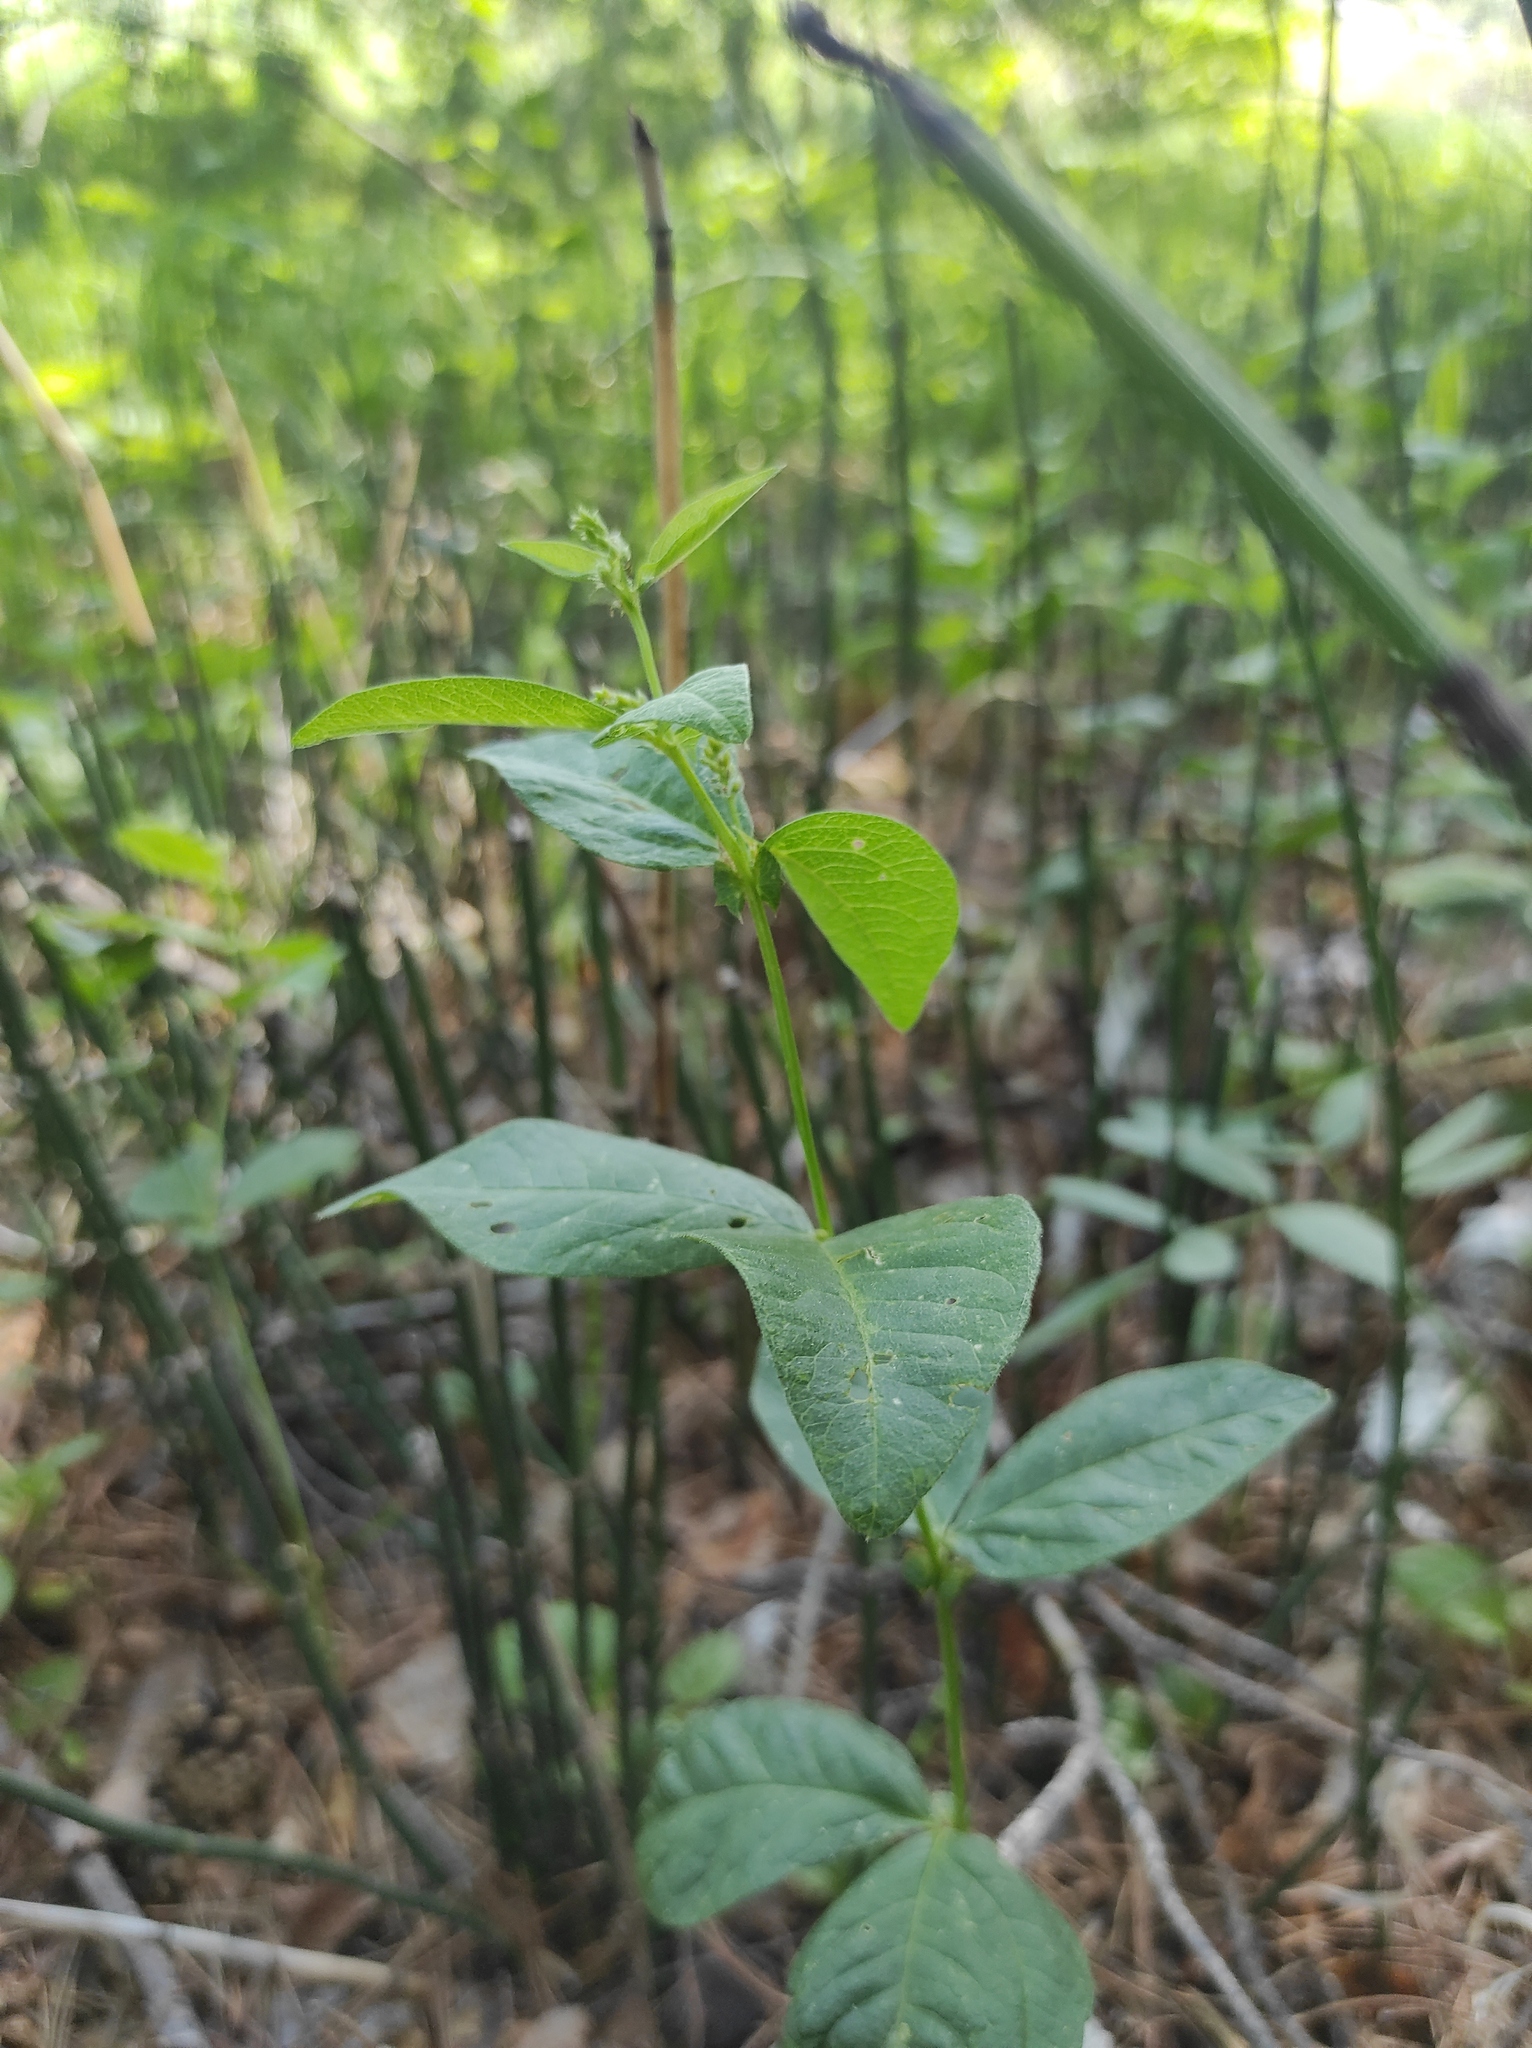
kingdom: Plantae
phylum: Tracheophyta
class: Magnoliopsida
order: Fabales
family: Fabaceae
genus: Vicia
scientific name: Vicia unijuga
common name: Two-leaf vetch
